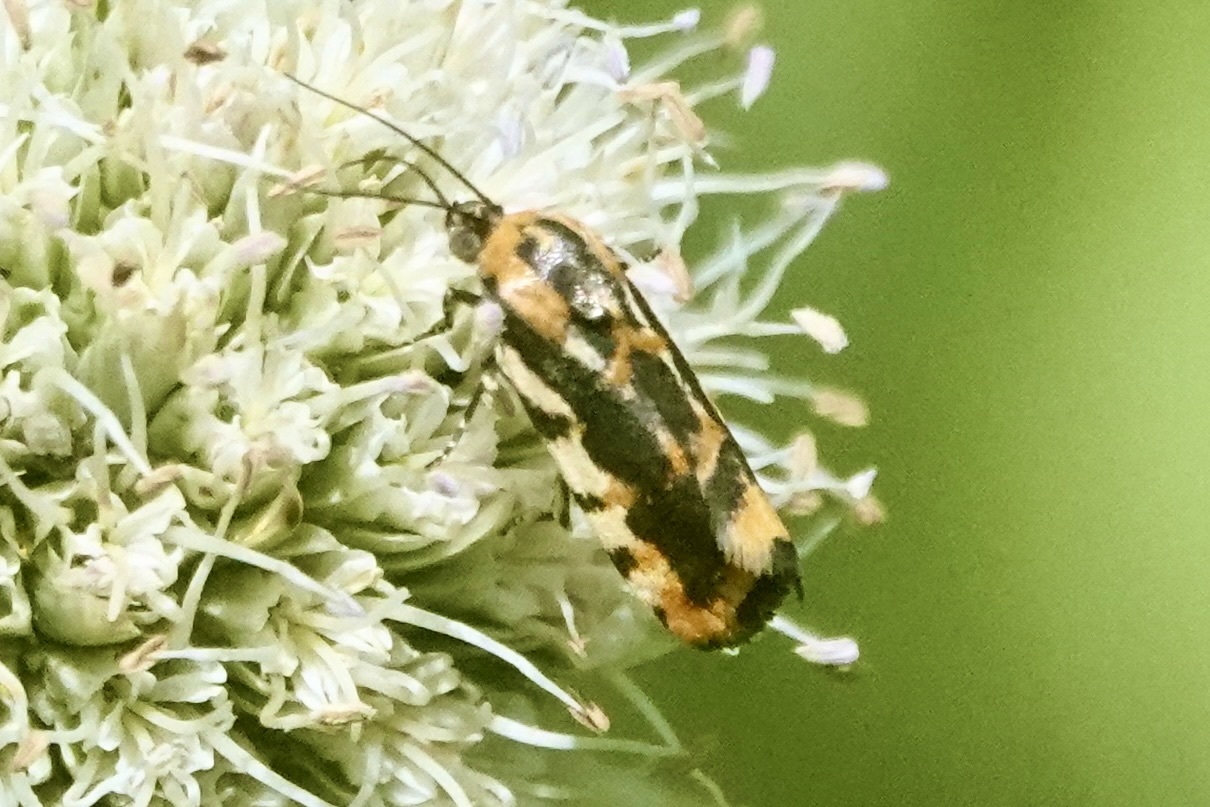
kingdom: Animalia
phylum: Arthropoda
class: Insecta
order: Lepidoptera
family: Noctuidae
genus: Acontia
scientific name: Acontia leo
